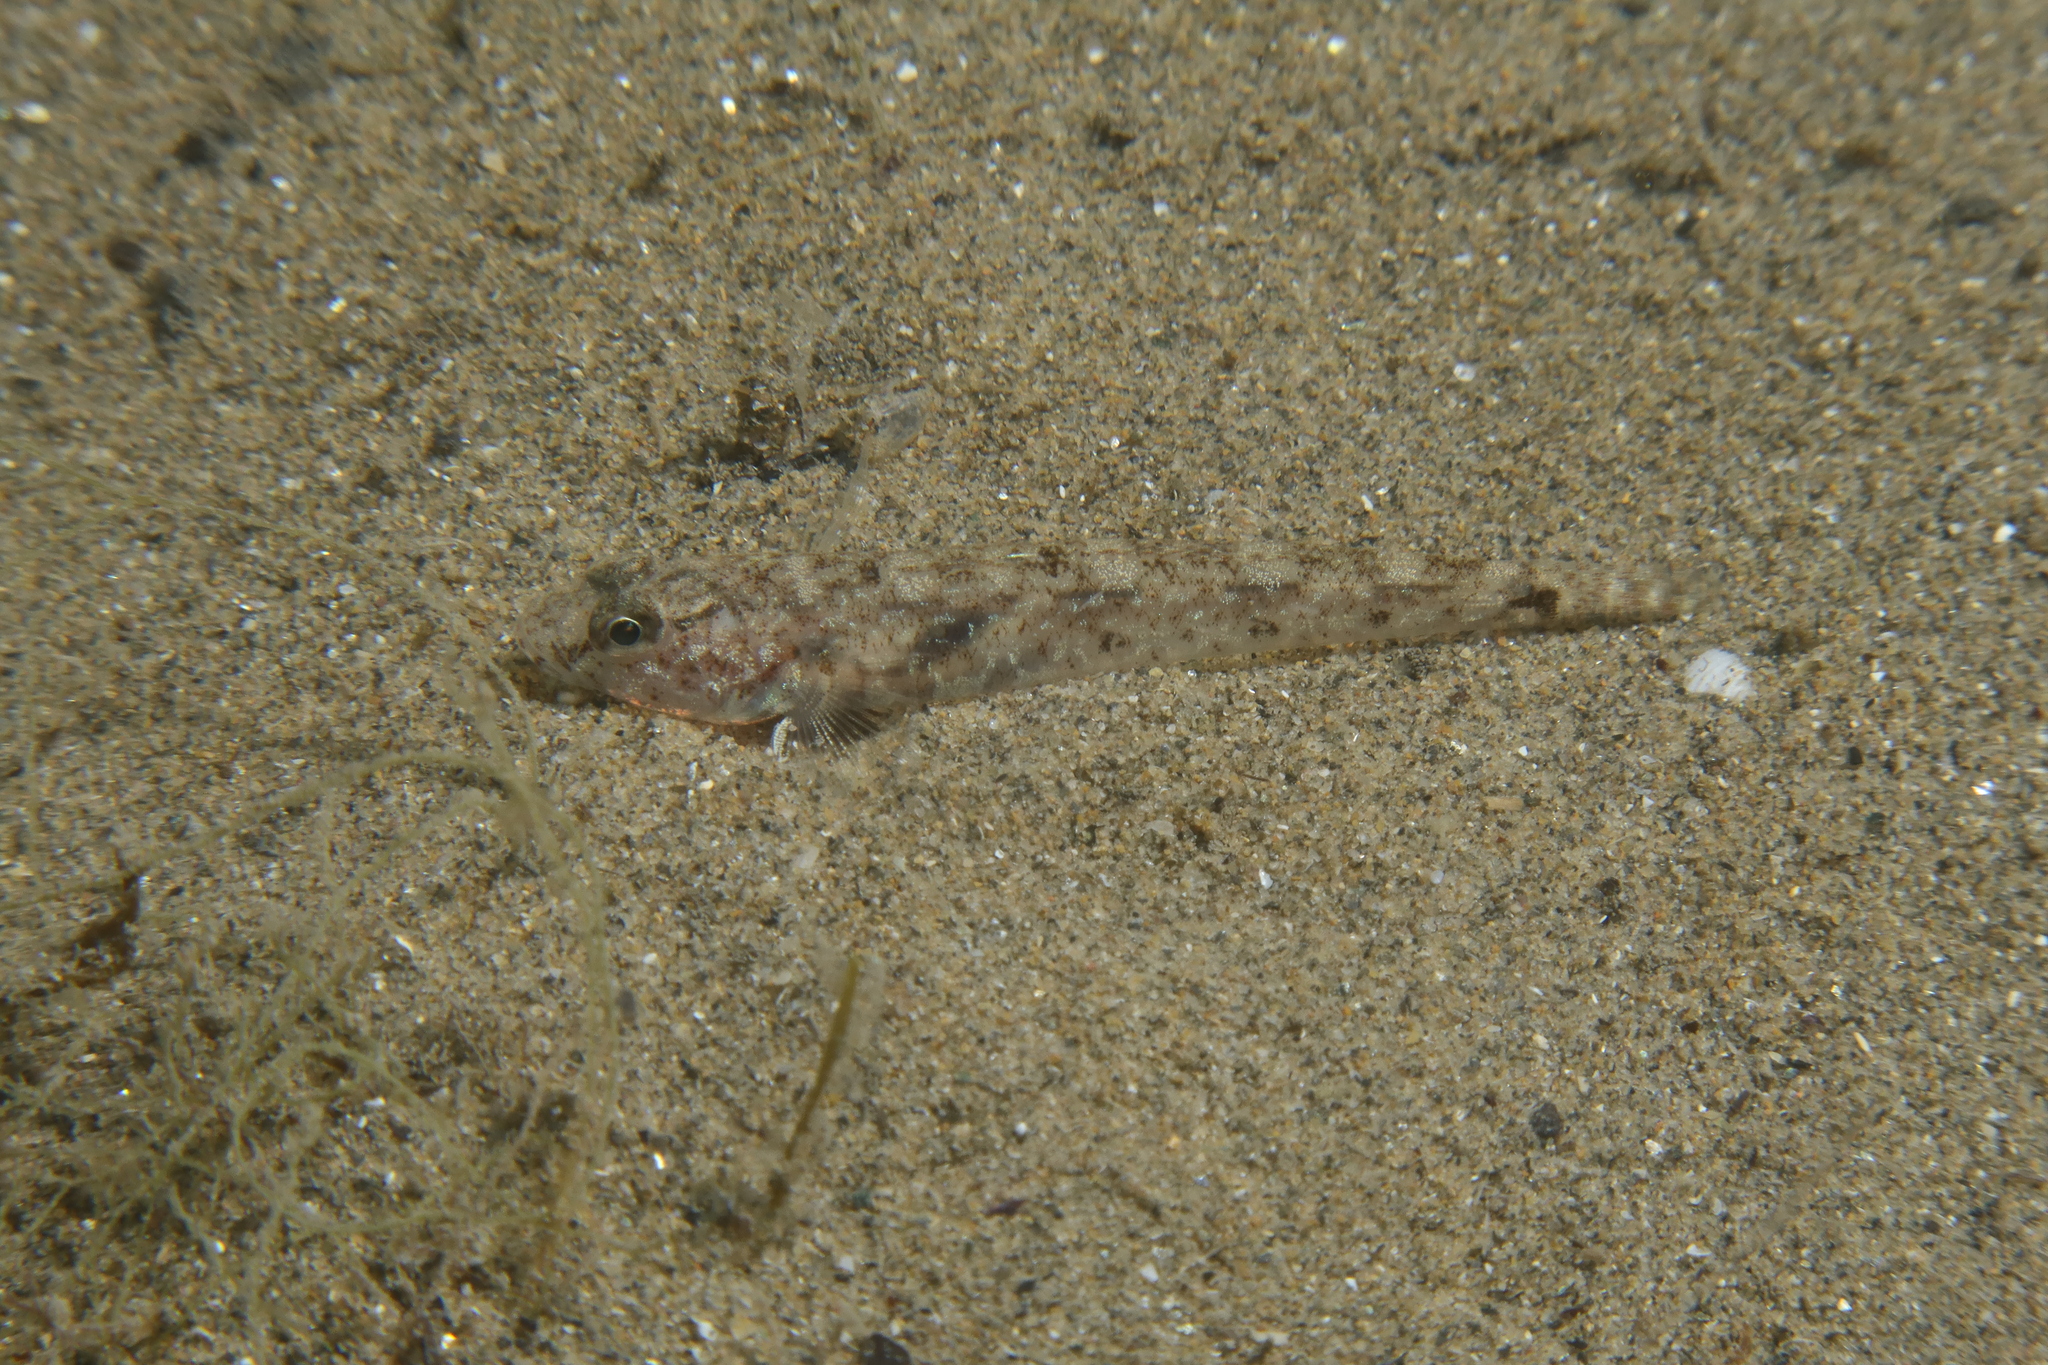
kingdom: Animalia
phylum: Chordata
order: Perciformes
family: Gobiidae
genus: Pomatoschistus
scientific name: Pomatoschistus minutus
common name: Sand goby
